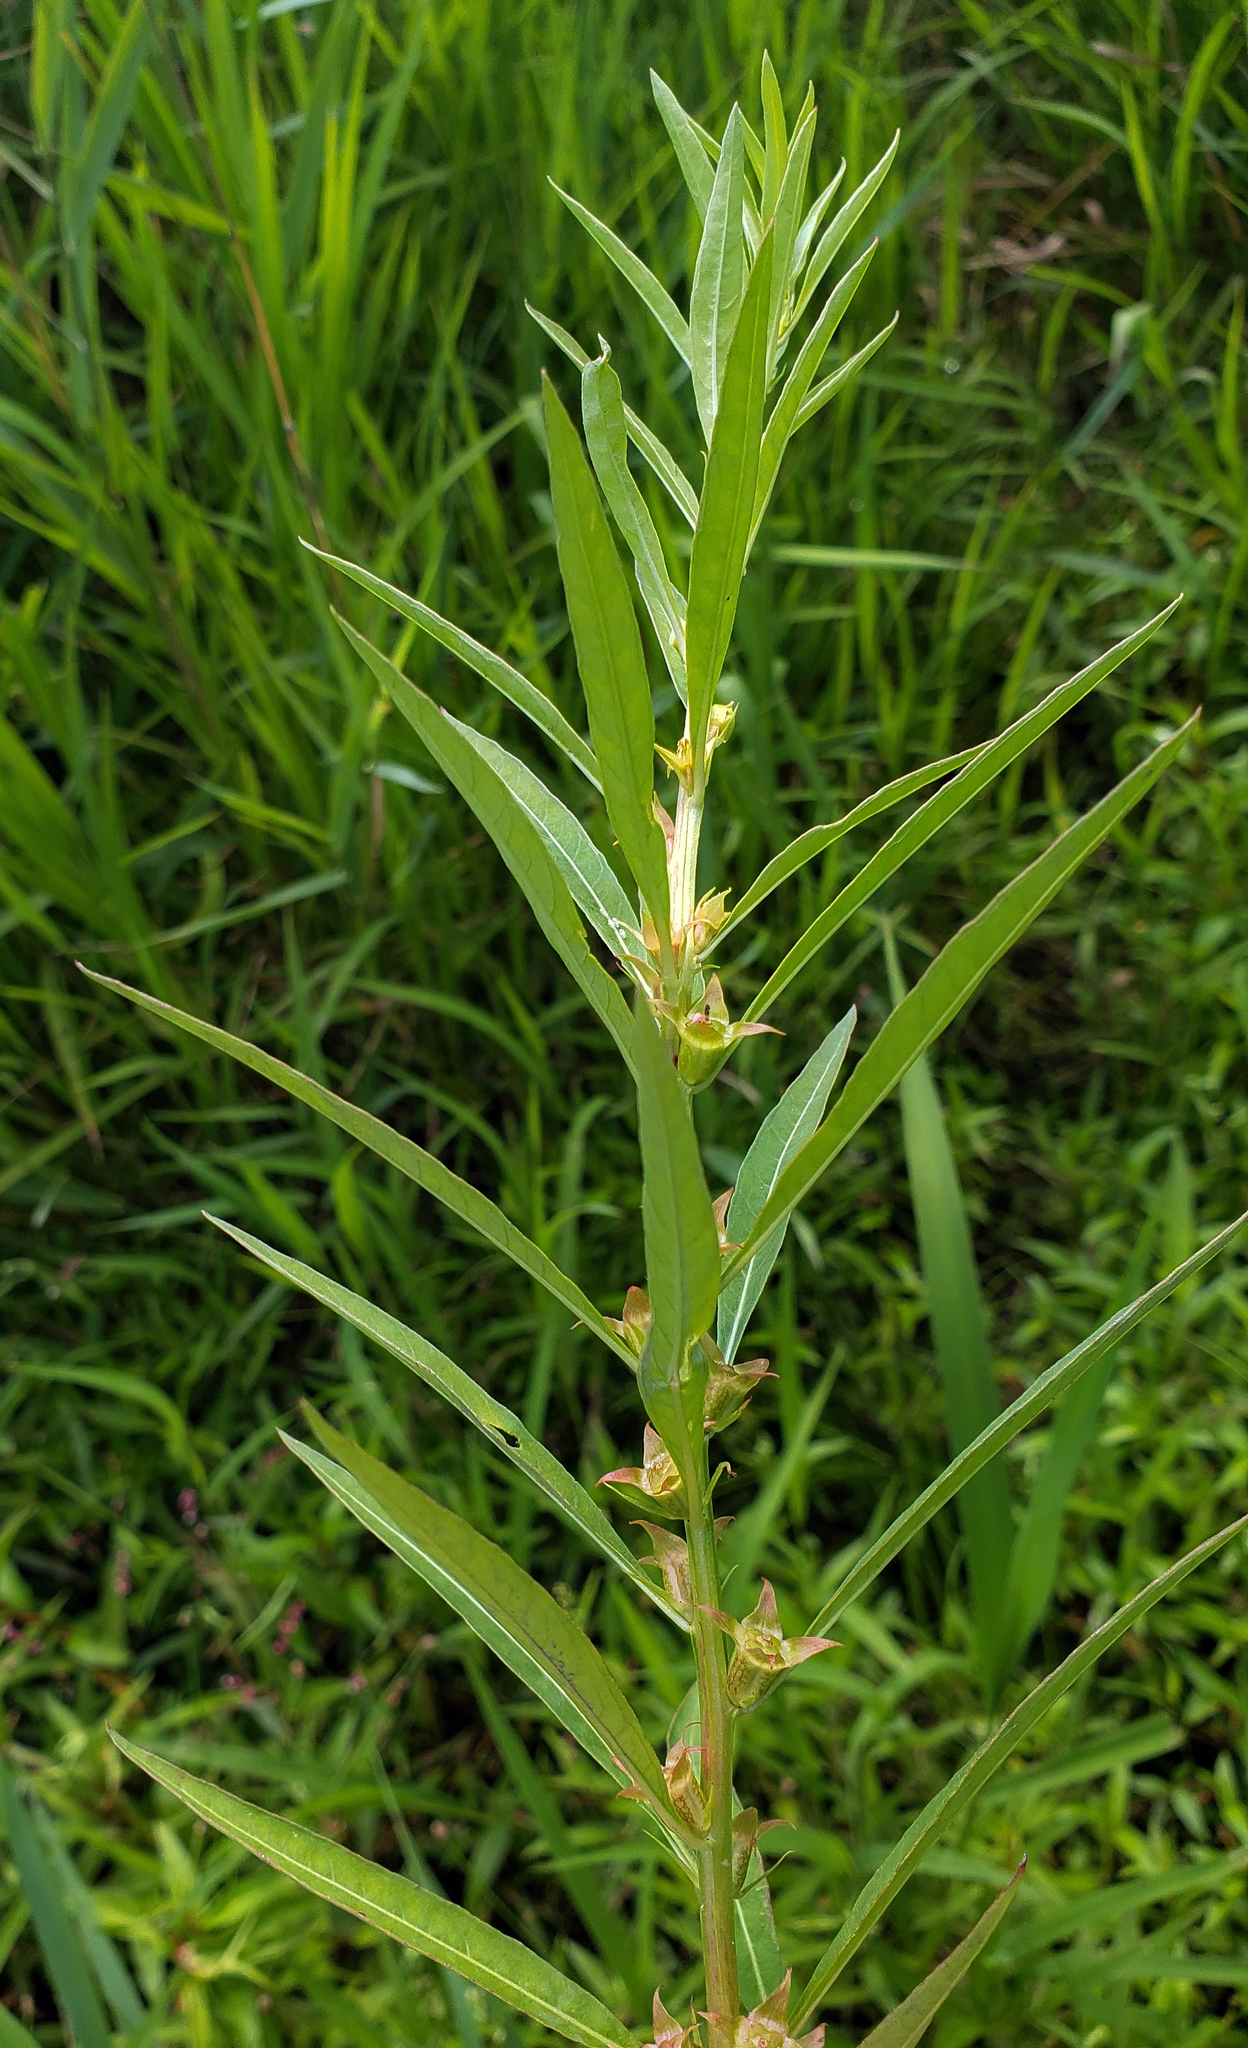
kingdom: Plantae
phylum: Tracheophyta
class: Magnoliopsida
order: Myrtales
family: Onagraceae
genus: Ludwigia
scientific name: Ludwigia polycarpa
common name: False loosestrife
